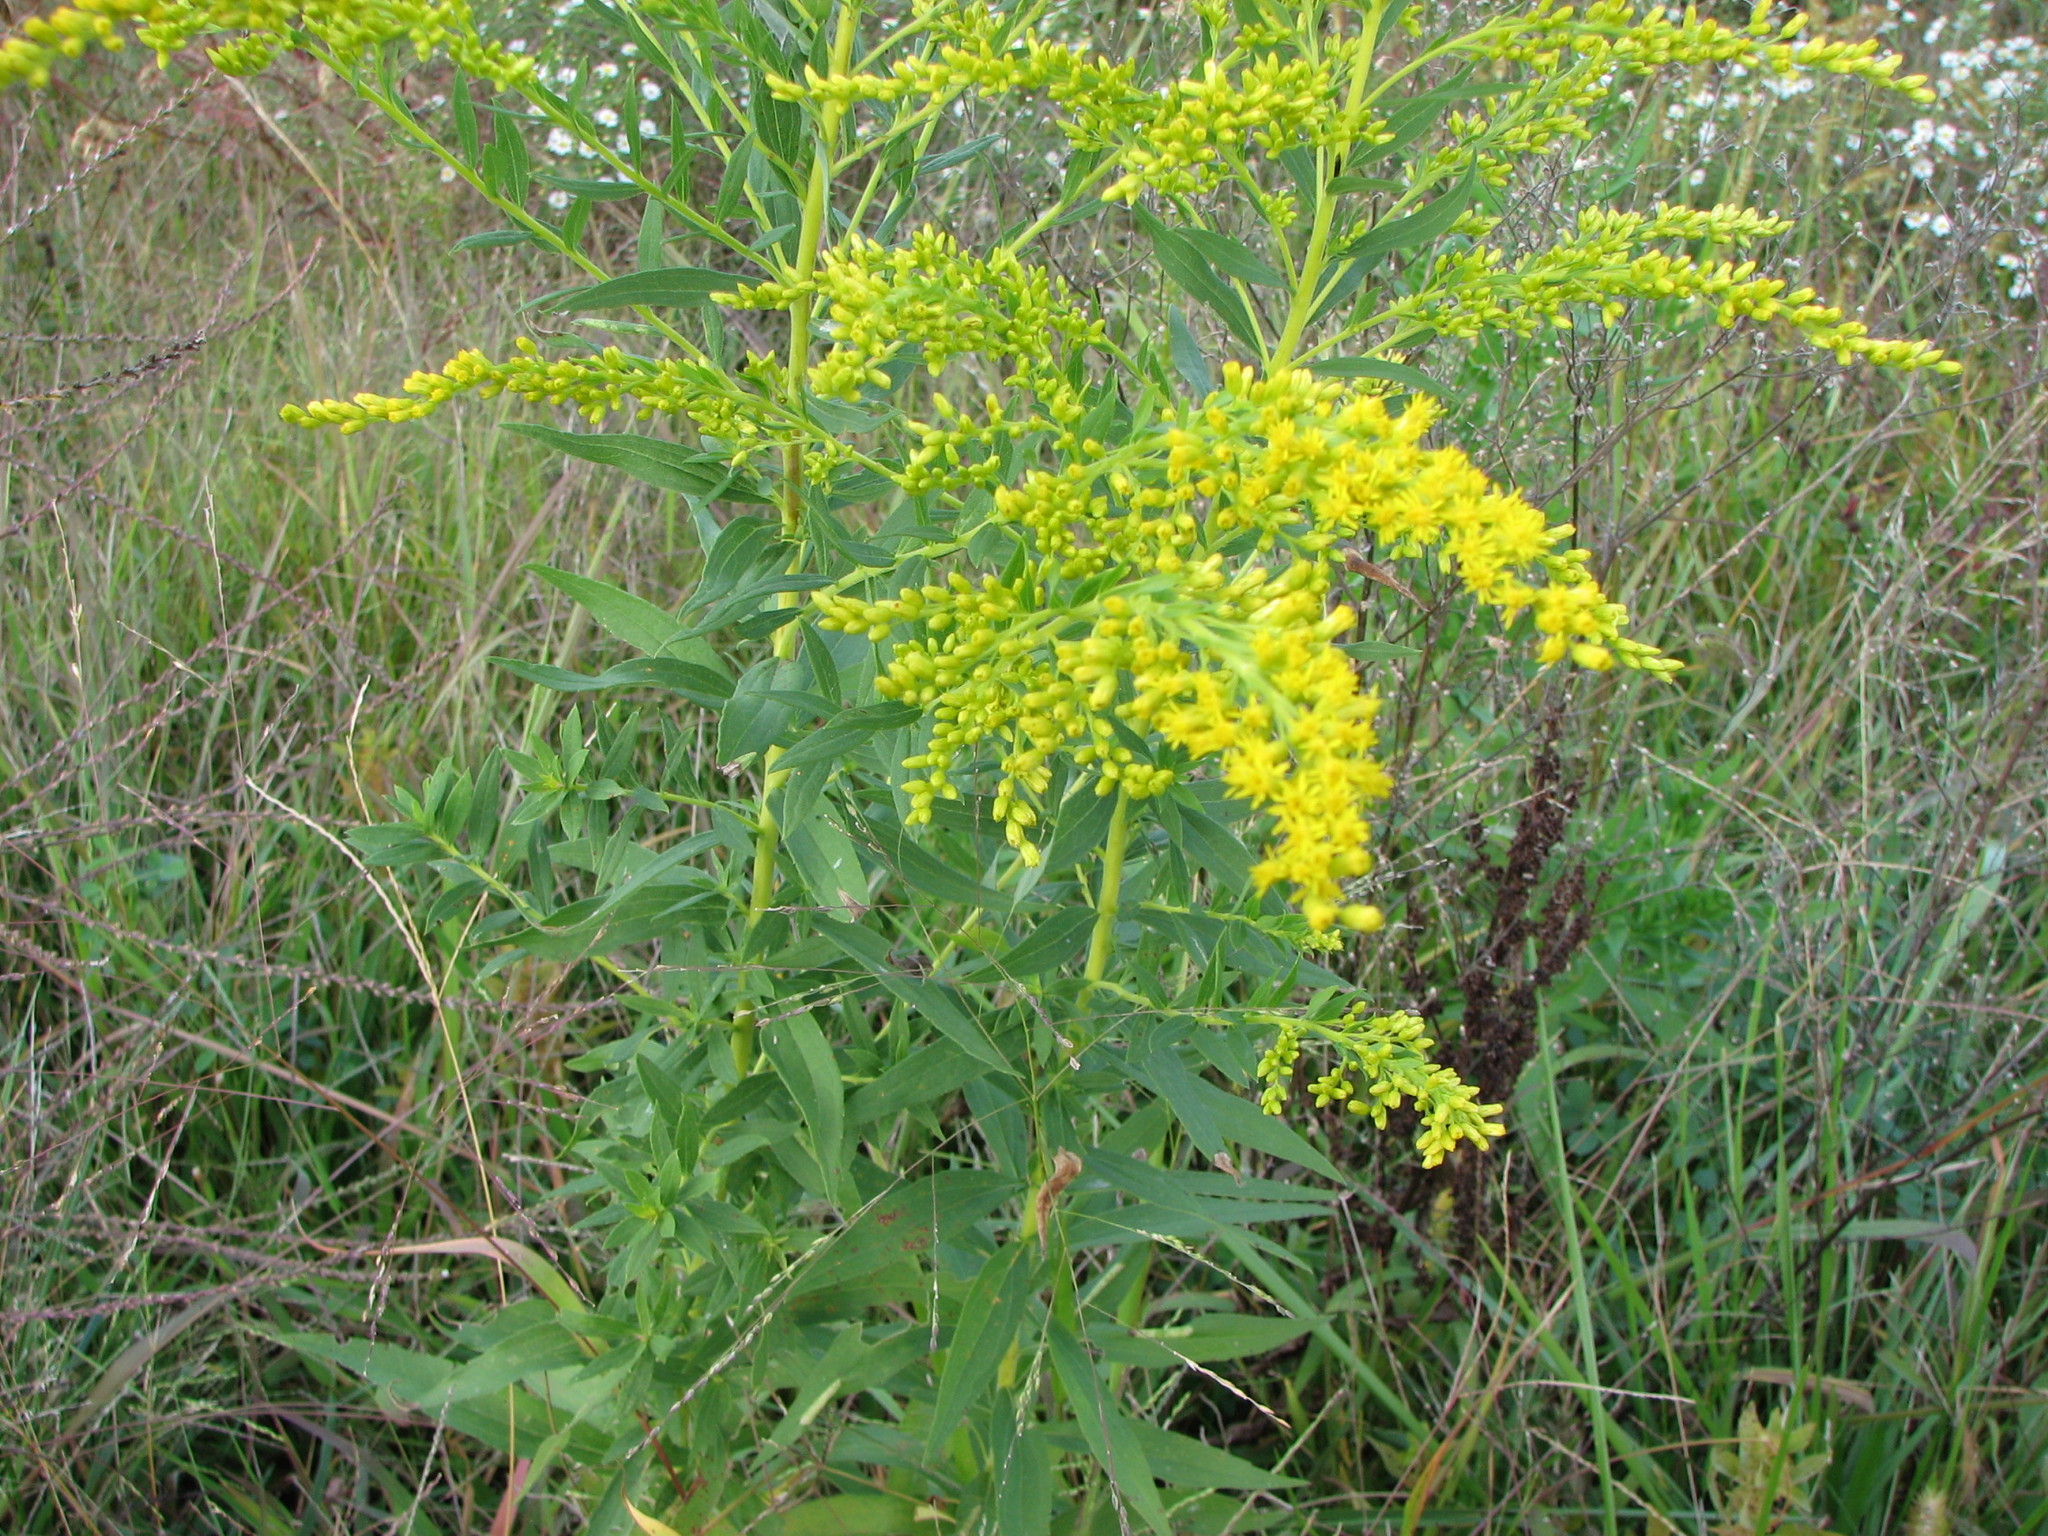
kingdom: Plantae
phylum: Tracheophyta
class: Magnoliopsida
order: Asterales
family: Asteraceae
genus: Solidago
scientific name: Solidago canadensis
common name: Canada goldenrod
